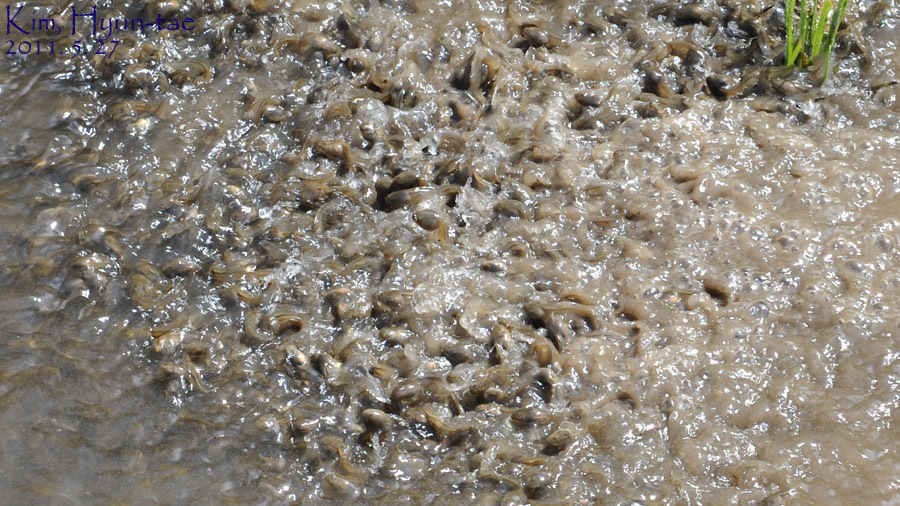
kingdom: Animalia
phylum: Chordata
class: Amphibia
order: Anura
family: Ranidae
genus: Rana
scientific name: Rana uenoi
